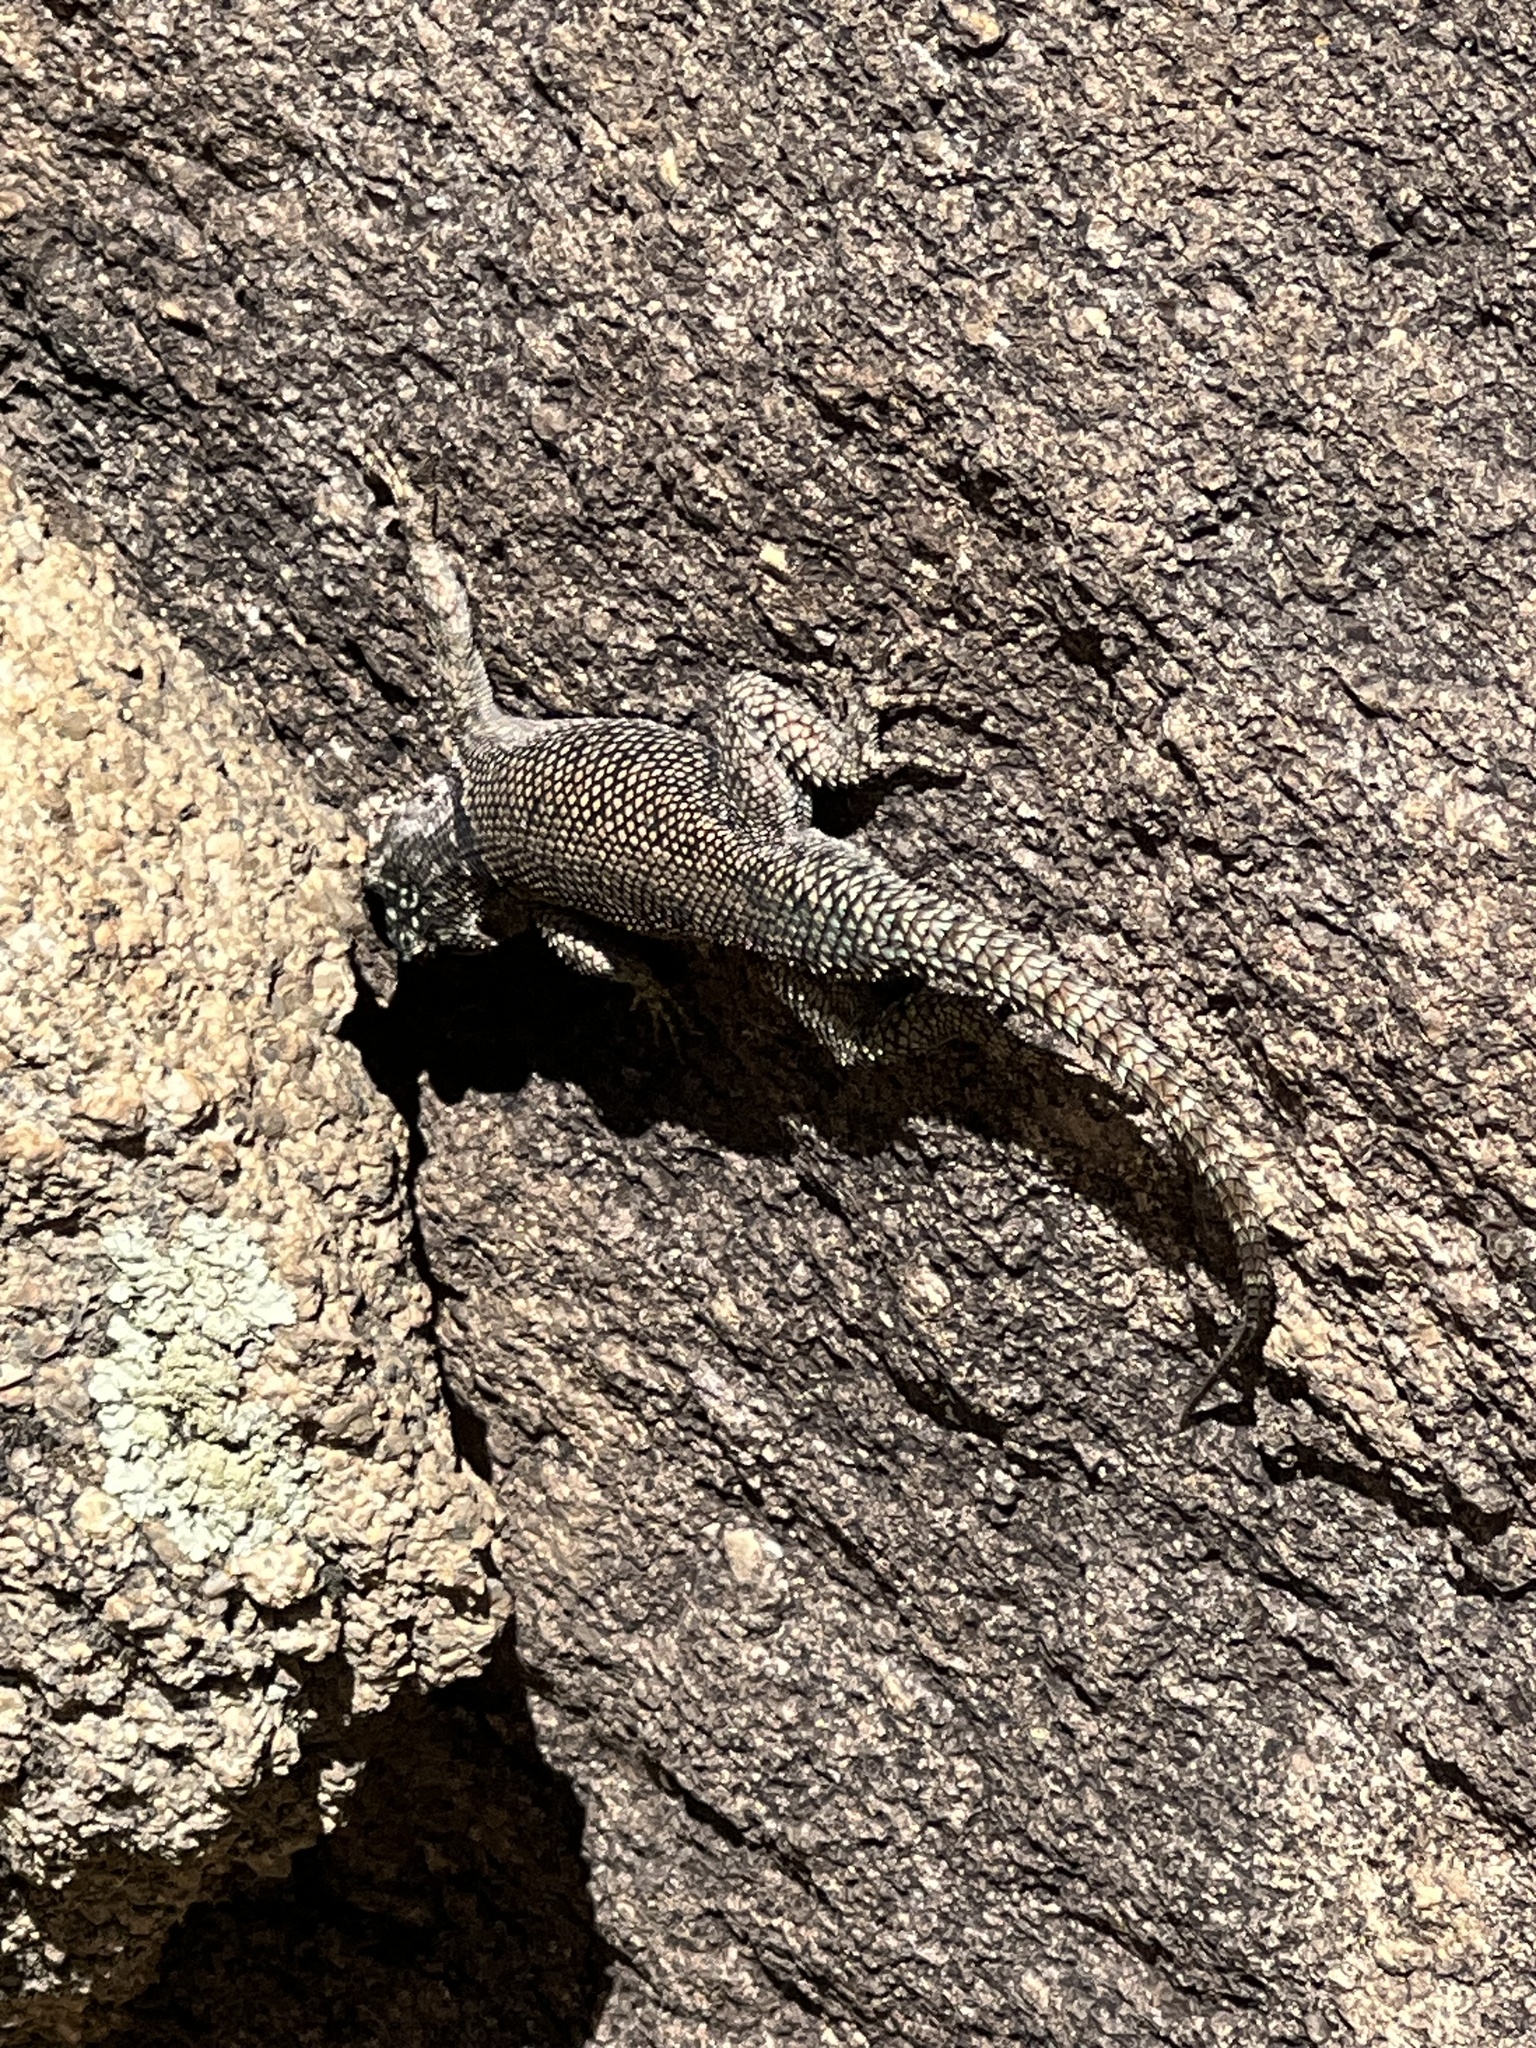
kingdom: Animalia
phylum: Chordata
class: Squamata
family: Phrynosomatidae
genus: Sceloporus
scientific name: Sceloporus jarrovii
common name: Yarrow's spiny lizard
